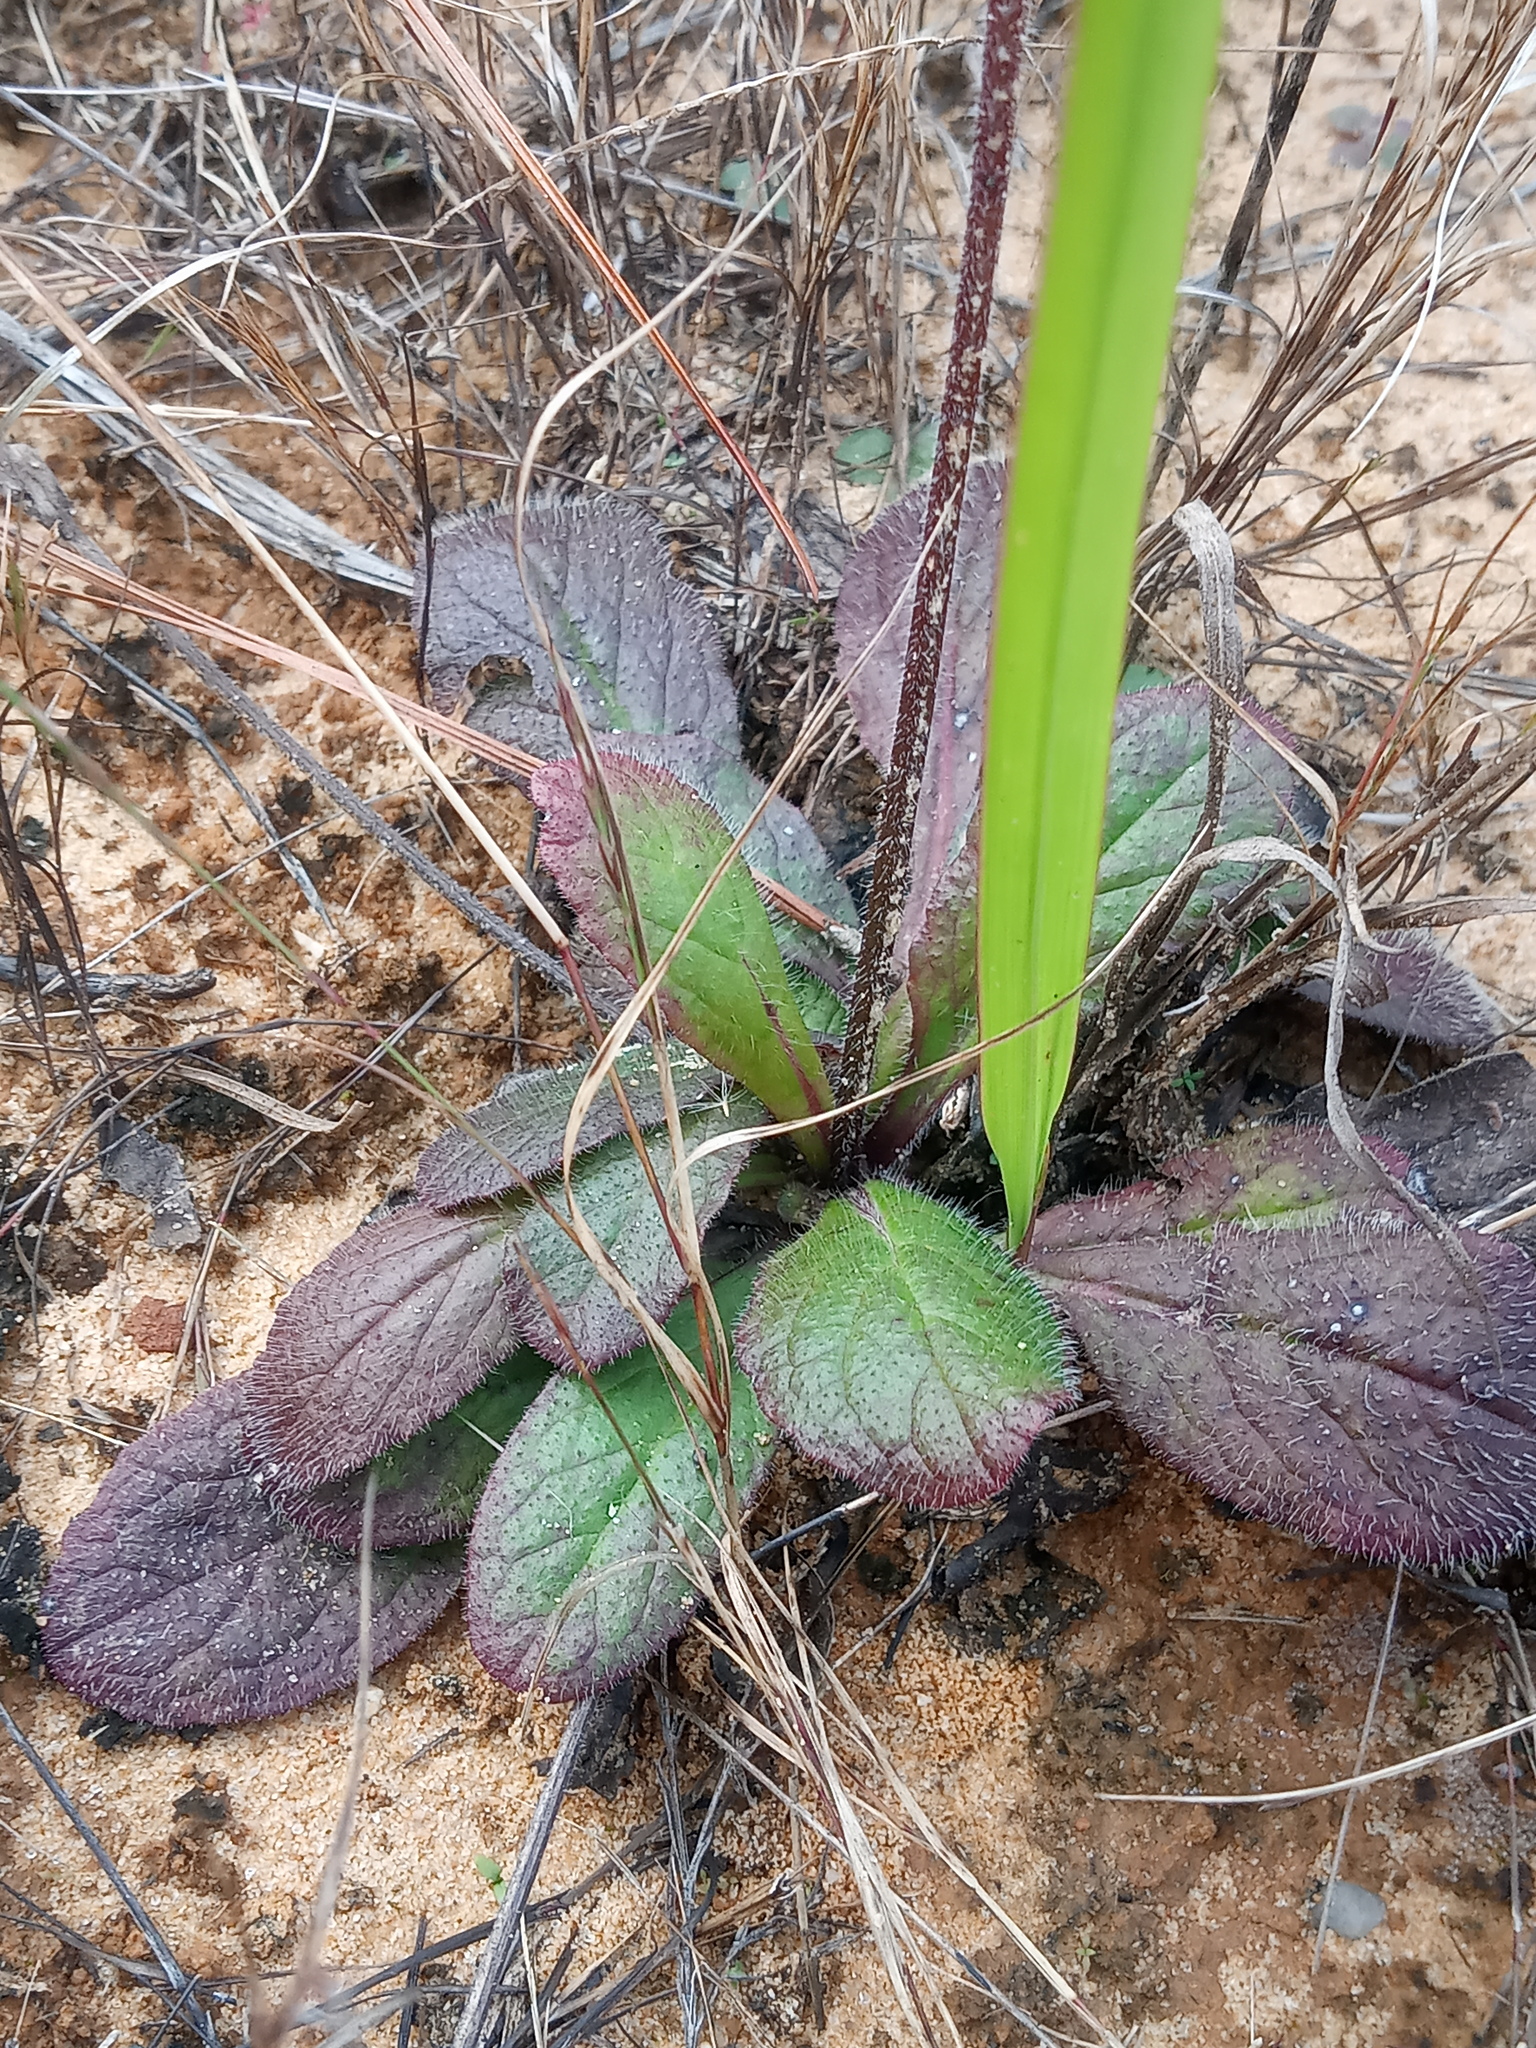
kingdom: Plantae
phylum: Tracheophyta
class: Magnoliopsida
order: Lamiales
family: Lamiaceae
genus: Salvia
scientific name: Salvia lyrata
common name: Cancerweed
